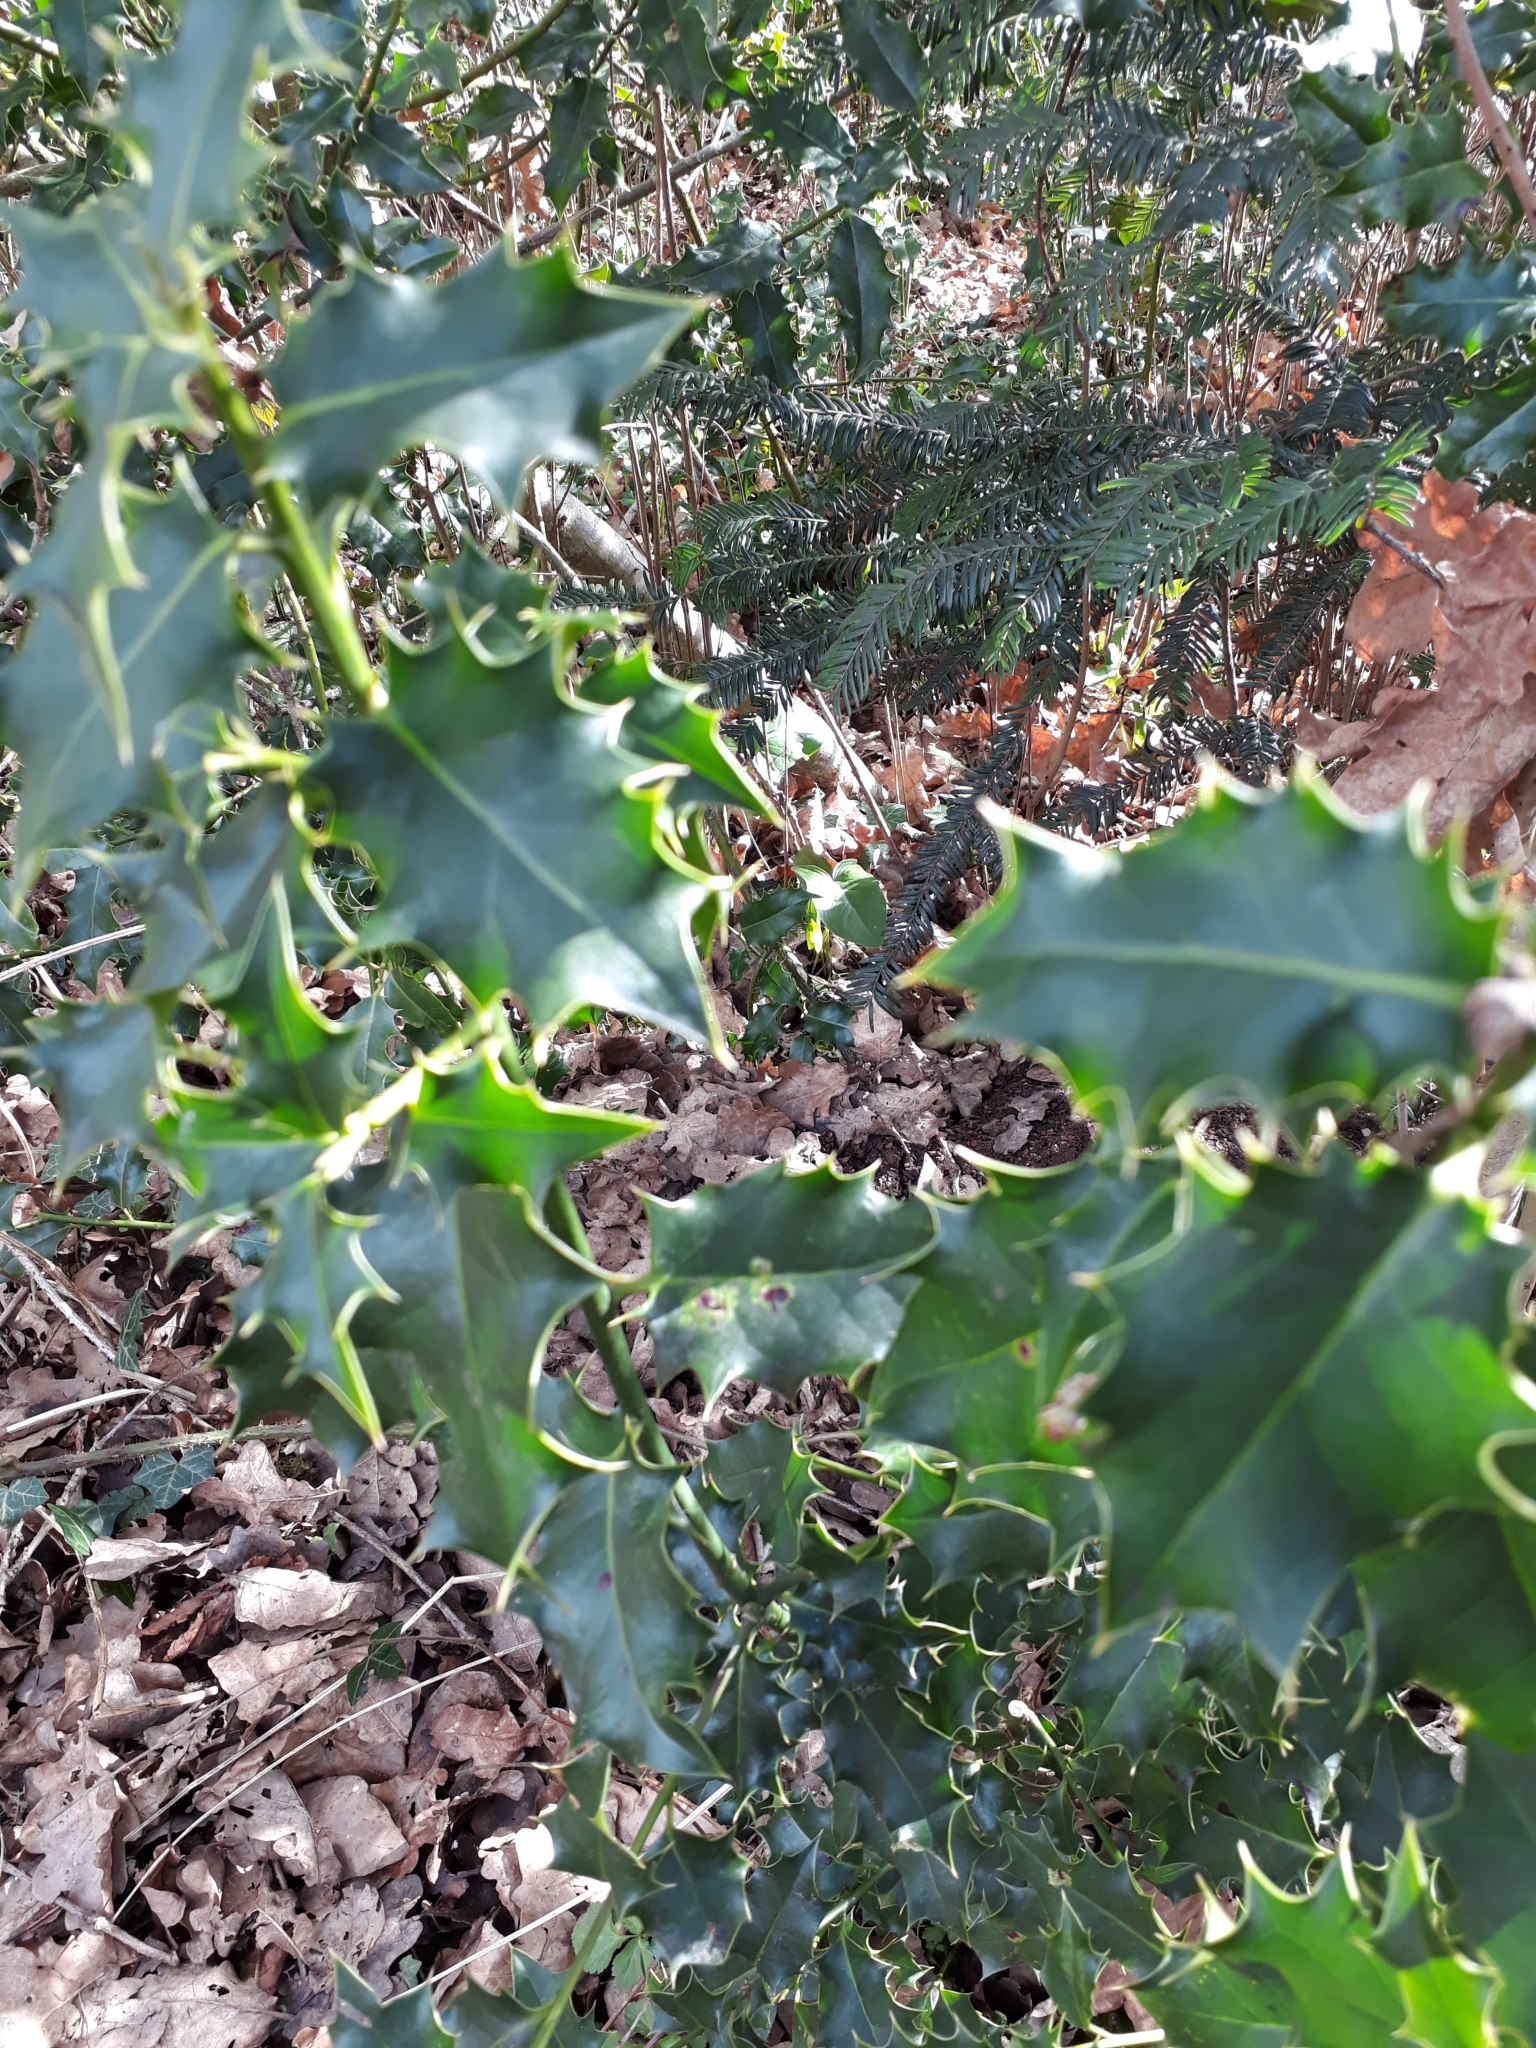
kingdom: Plantae
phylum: Tracheophyta
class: Magnoliopsida
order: Aquifoliales
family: Aquifoliaceae
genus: Ilex
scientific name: Ilex aquifolium
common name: English holly
